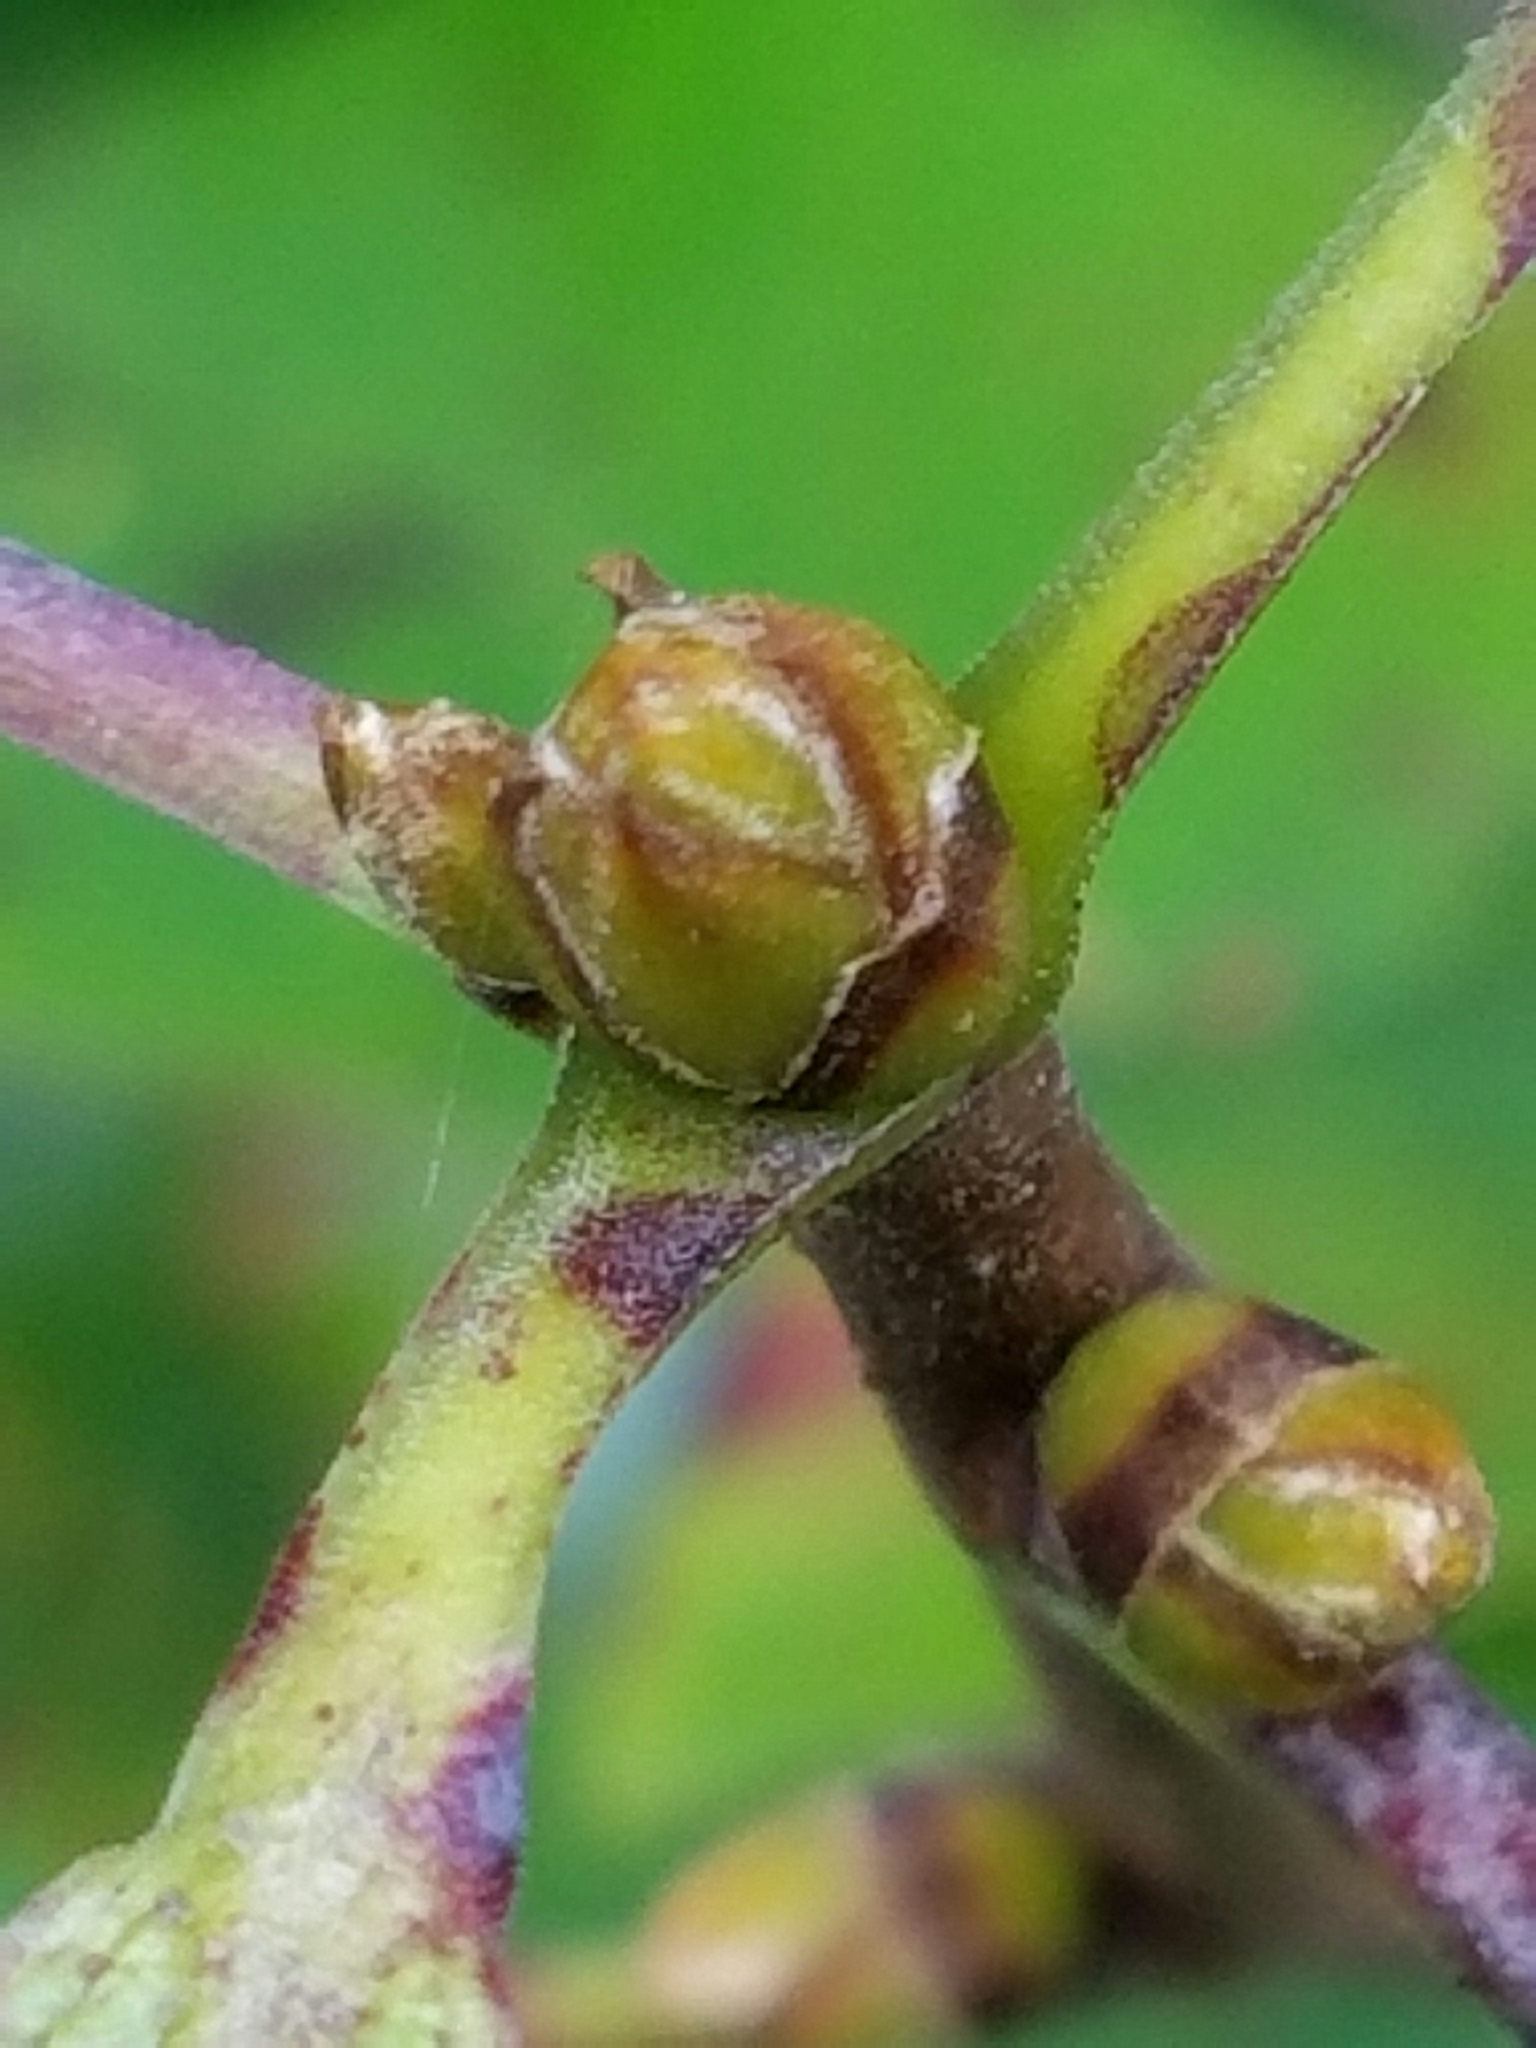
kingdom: Plantae
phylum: Tracheophyta
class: Magnoliopsida
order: Cornales
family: Nyssaceae
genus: Nyssa
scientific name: Nyssa sylvatica
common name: Black tupelo
